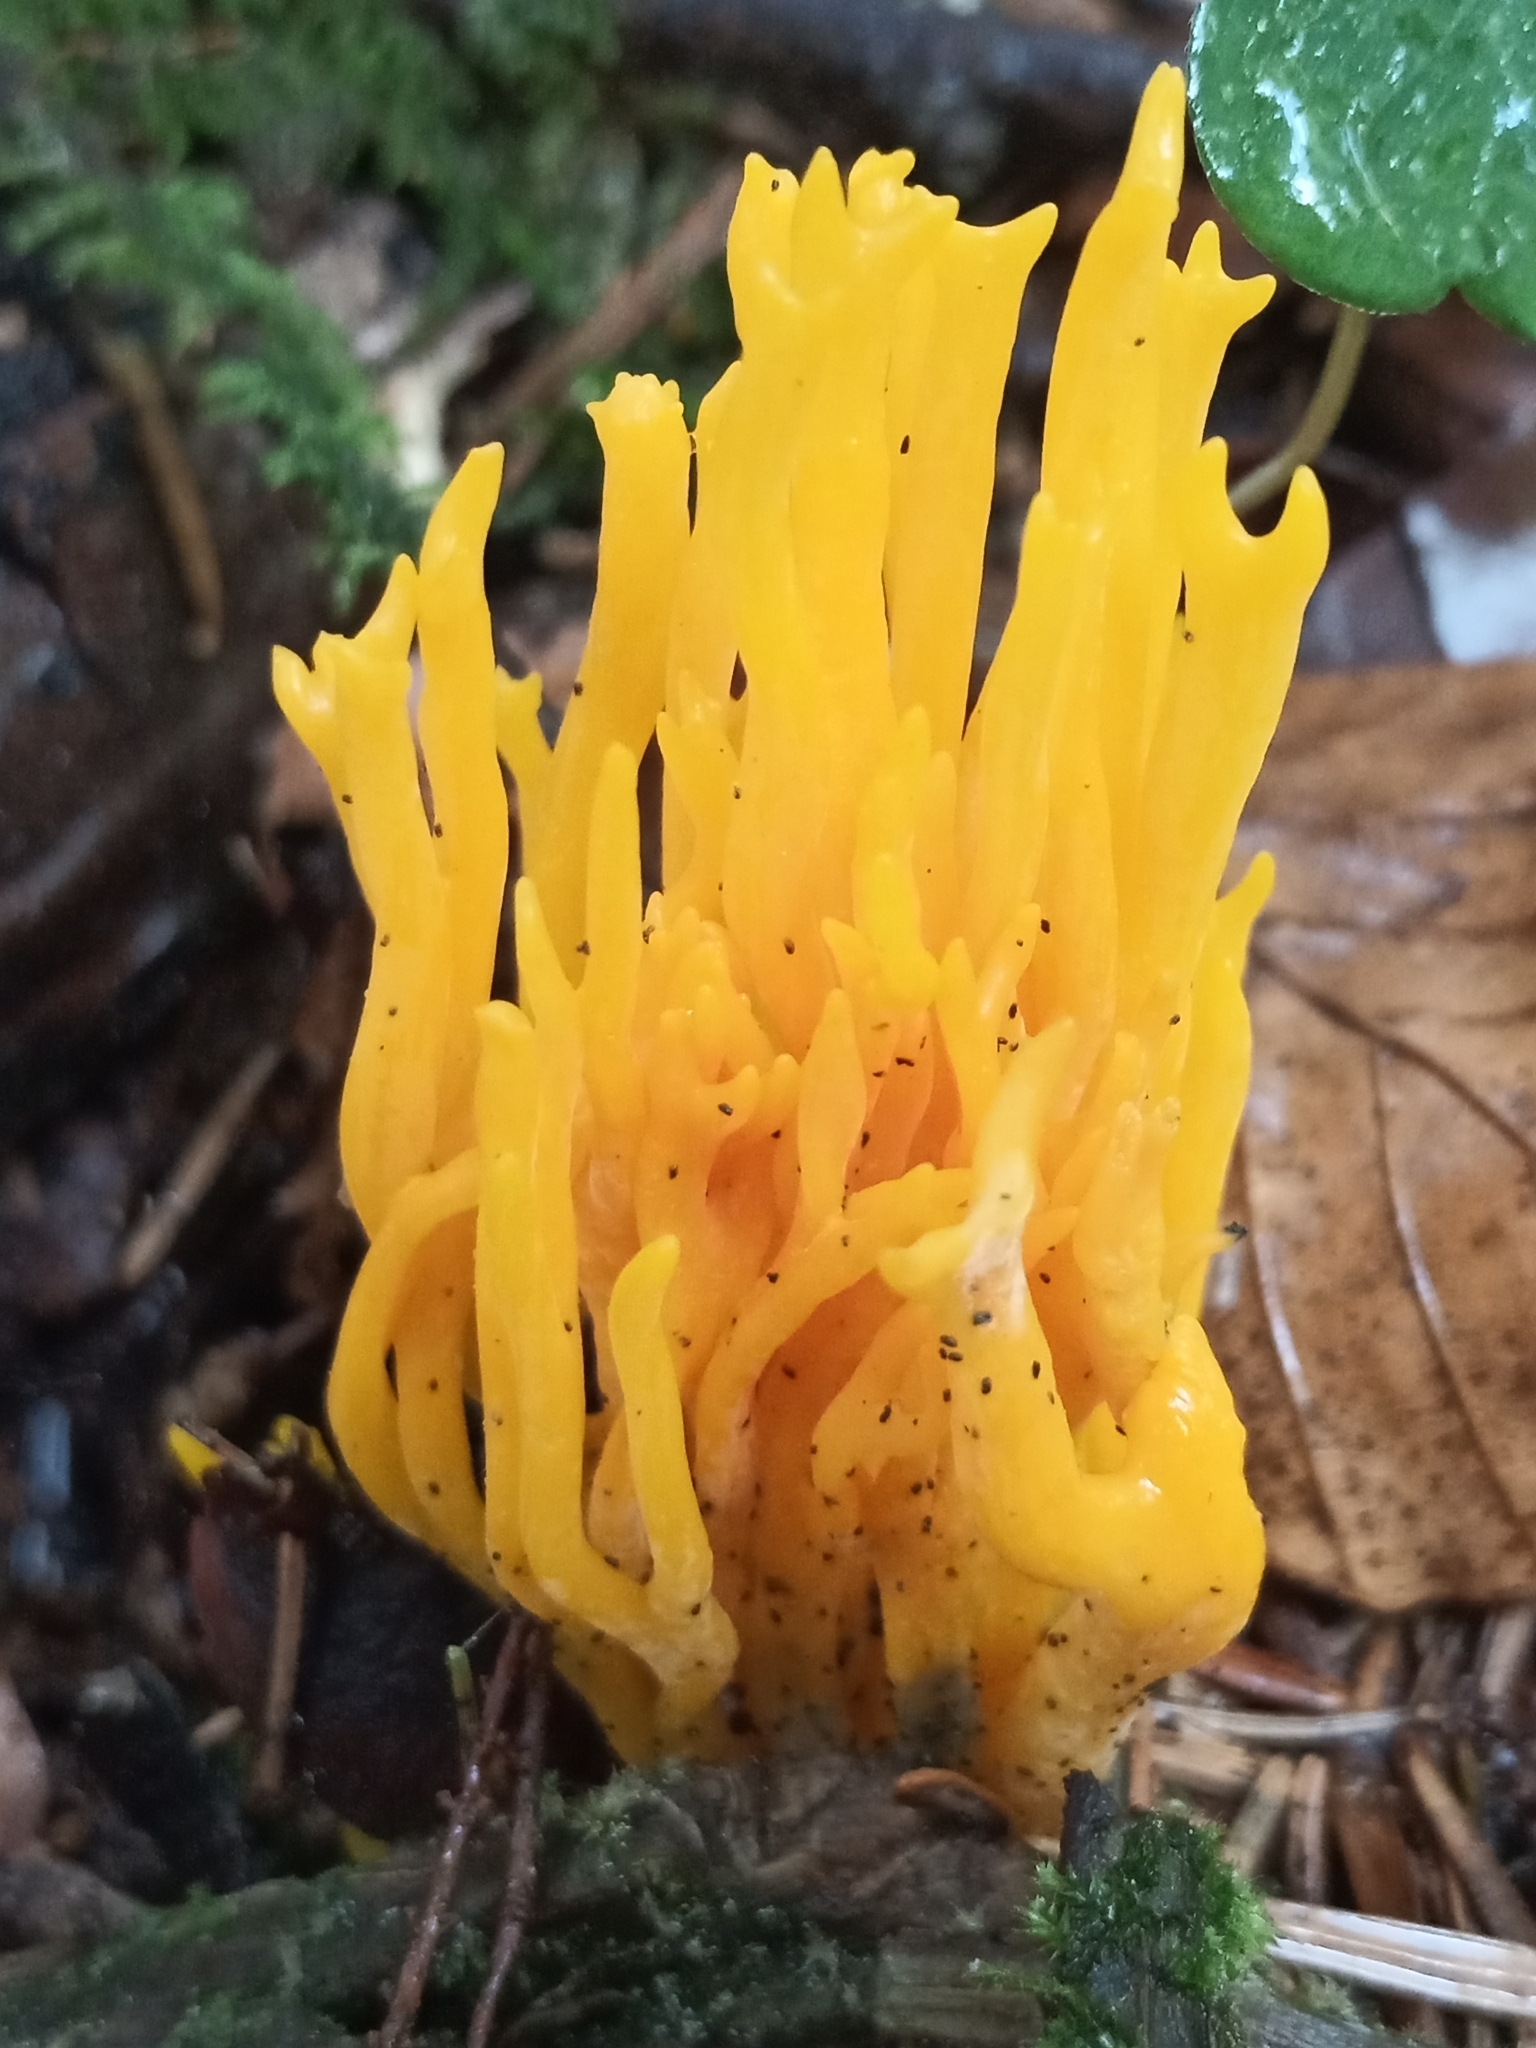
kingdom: Fungi
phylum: Basidiomycota
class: Dacrymycetes
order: Dacrymycetales
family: Dacrymycetaceae
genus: Calocera
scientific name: Calocera viscosa
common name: Yellow stagshorn
